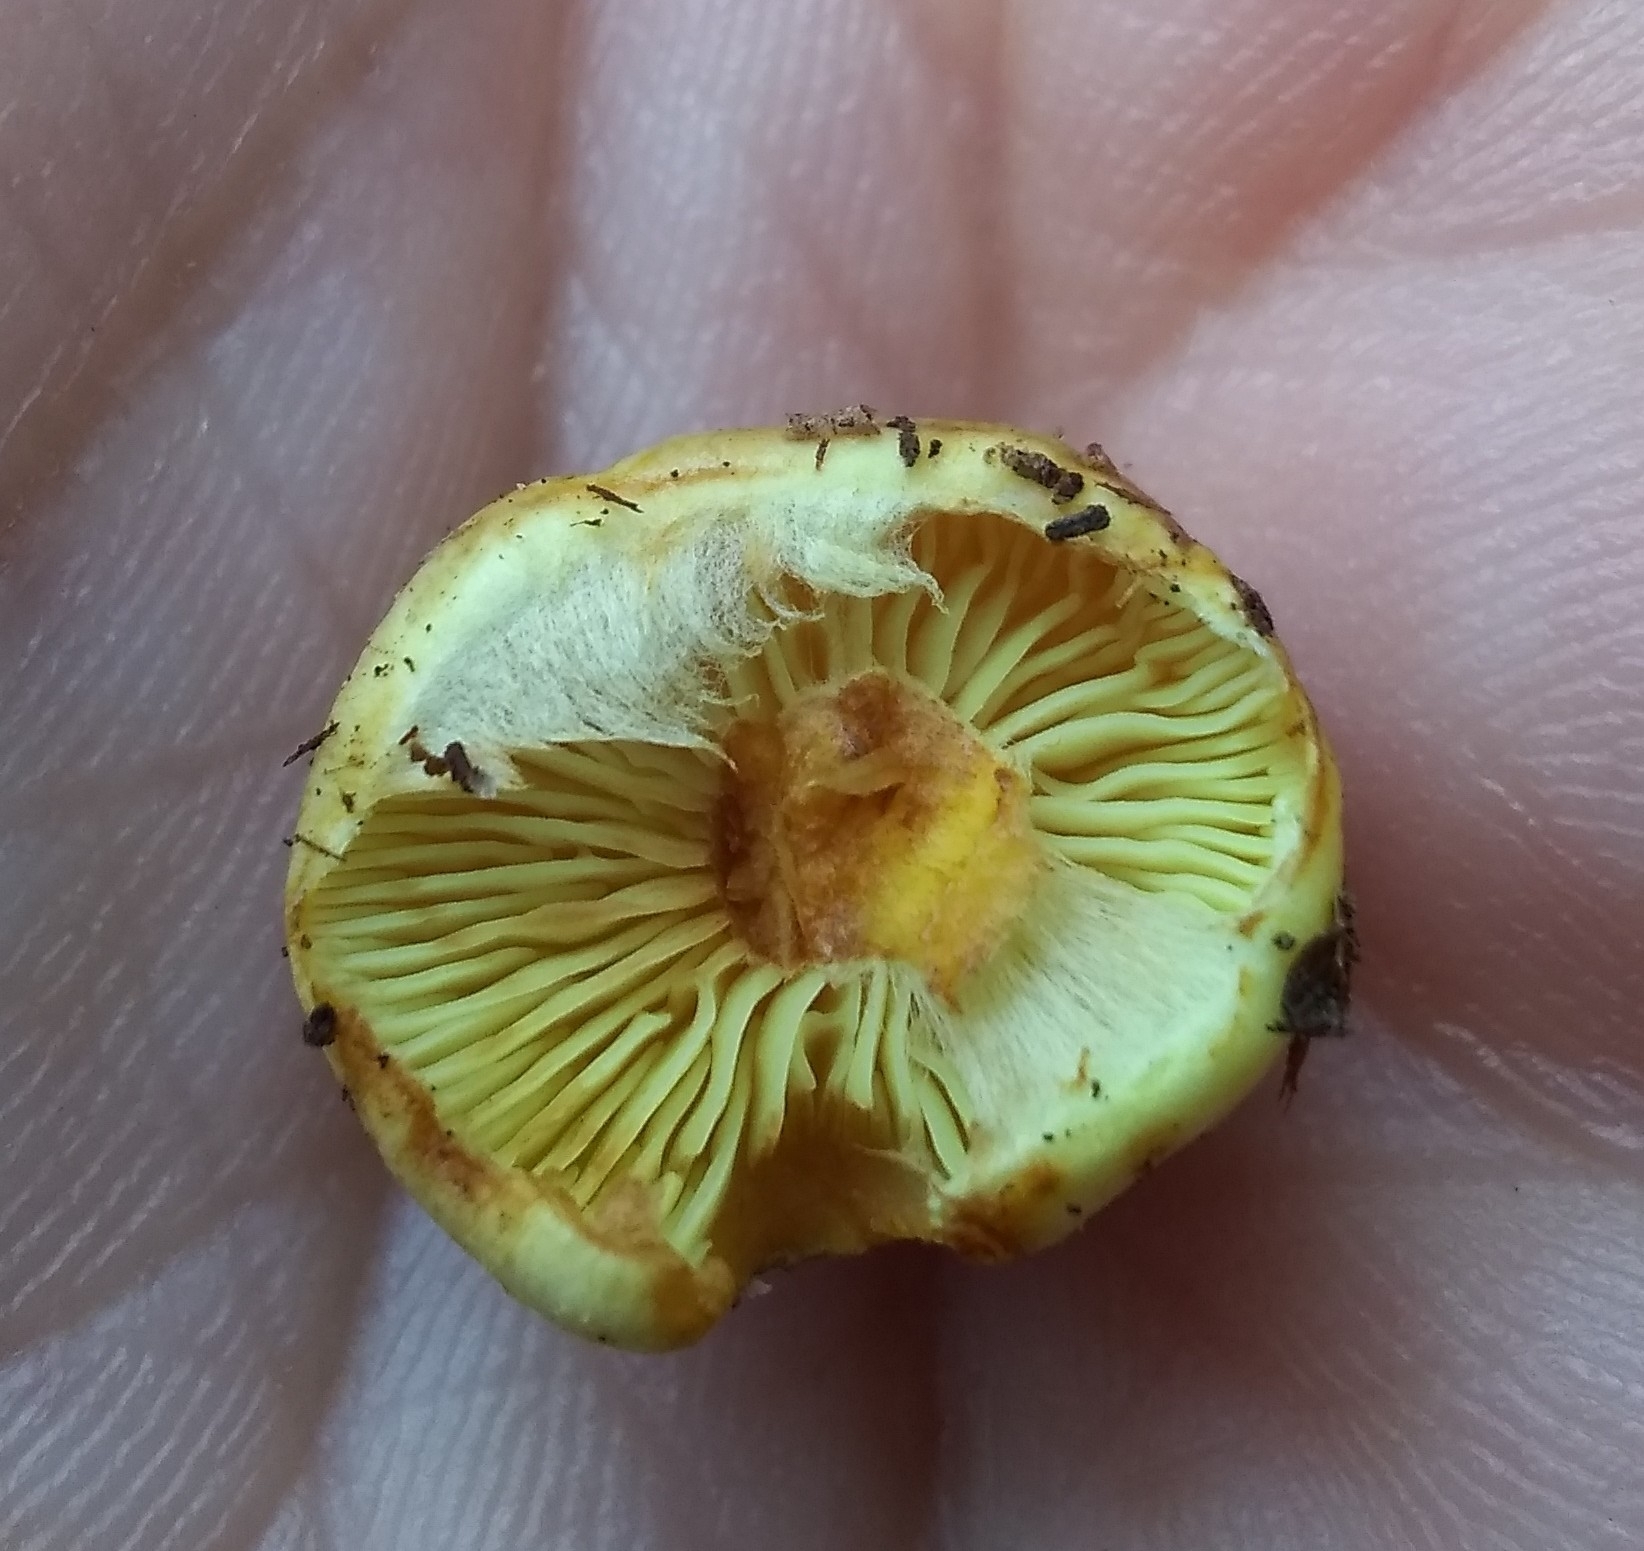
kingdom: Fungi
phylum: Basidiomycota
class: Agaricomycetes
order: Agaricales
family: Strophariaceae
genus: Hypholoma
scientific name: Hypholoma fasciculare
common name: Sulphur tuft
